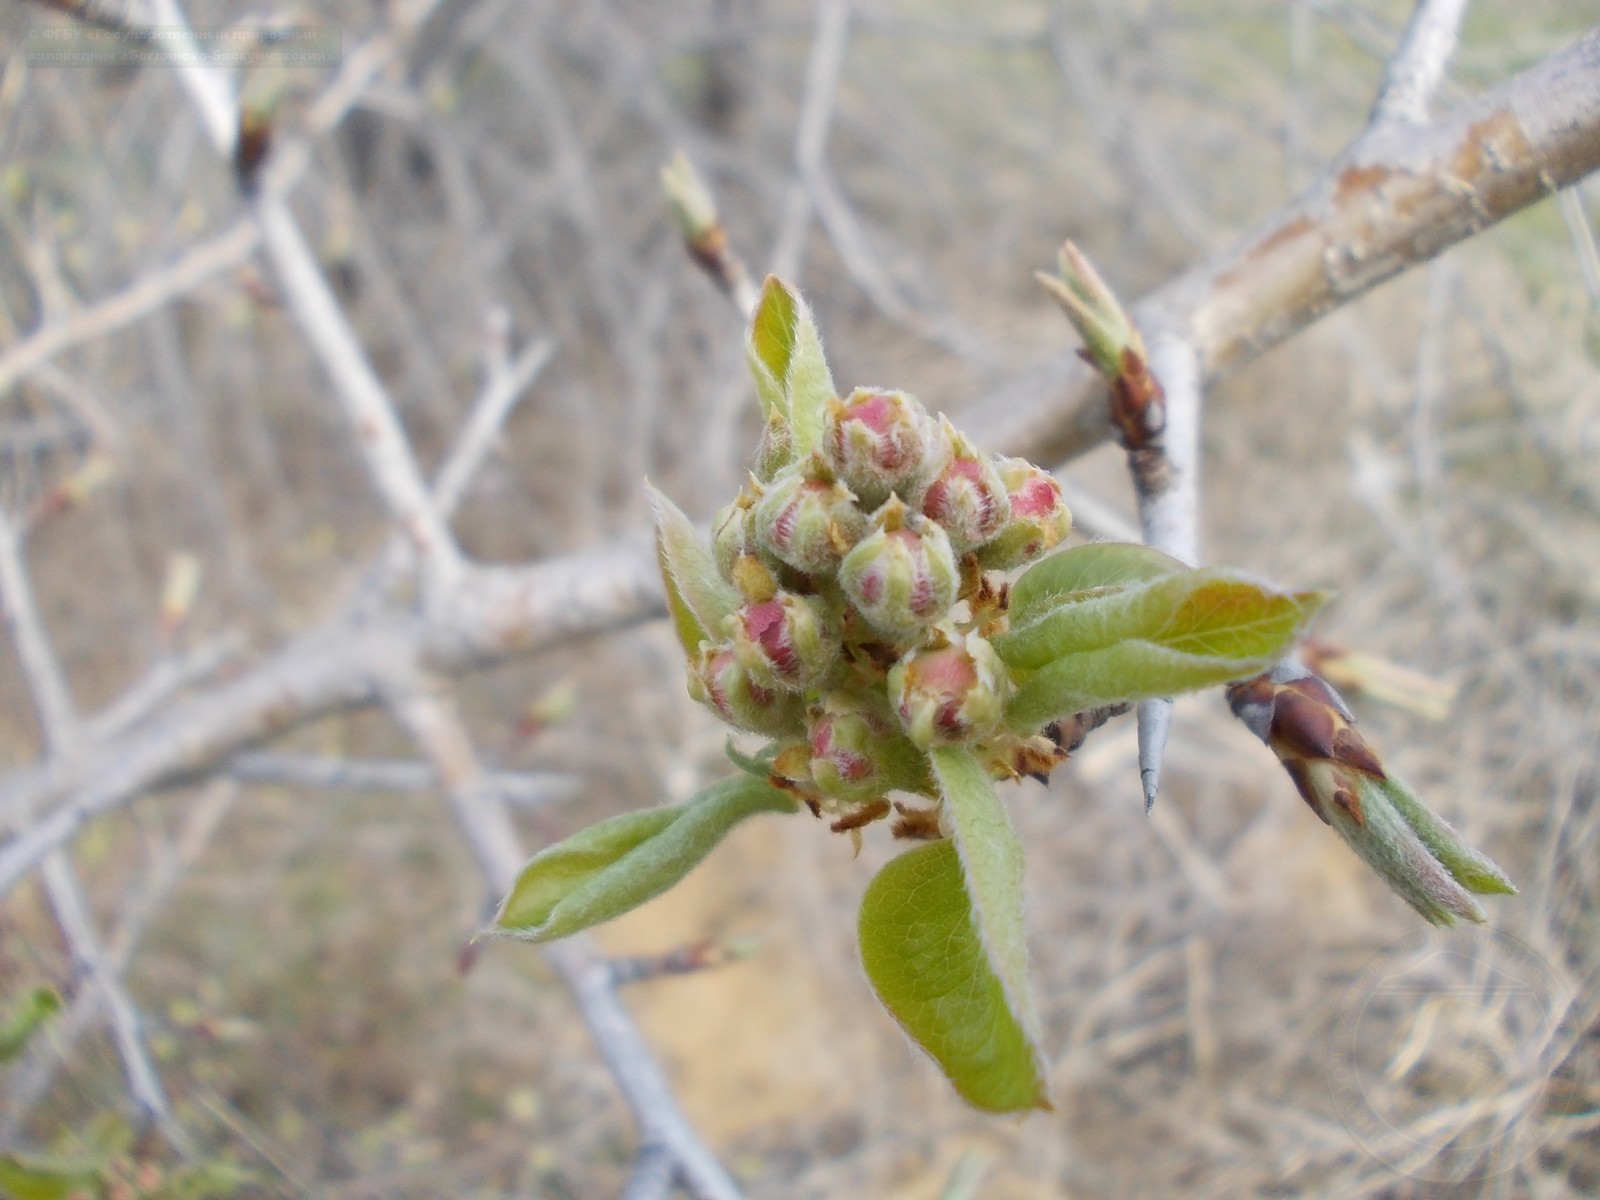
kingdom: Plantae
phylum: Tracheophyta
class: Magnoliopsida
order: Rosales
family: Rosaceae
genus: Malus
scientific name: Malus domestica
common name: Apple
